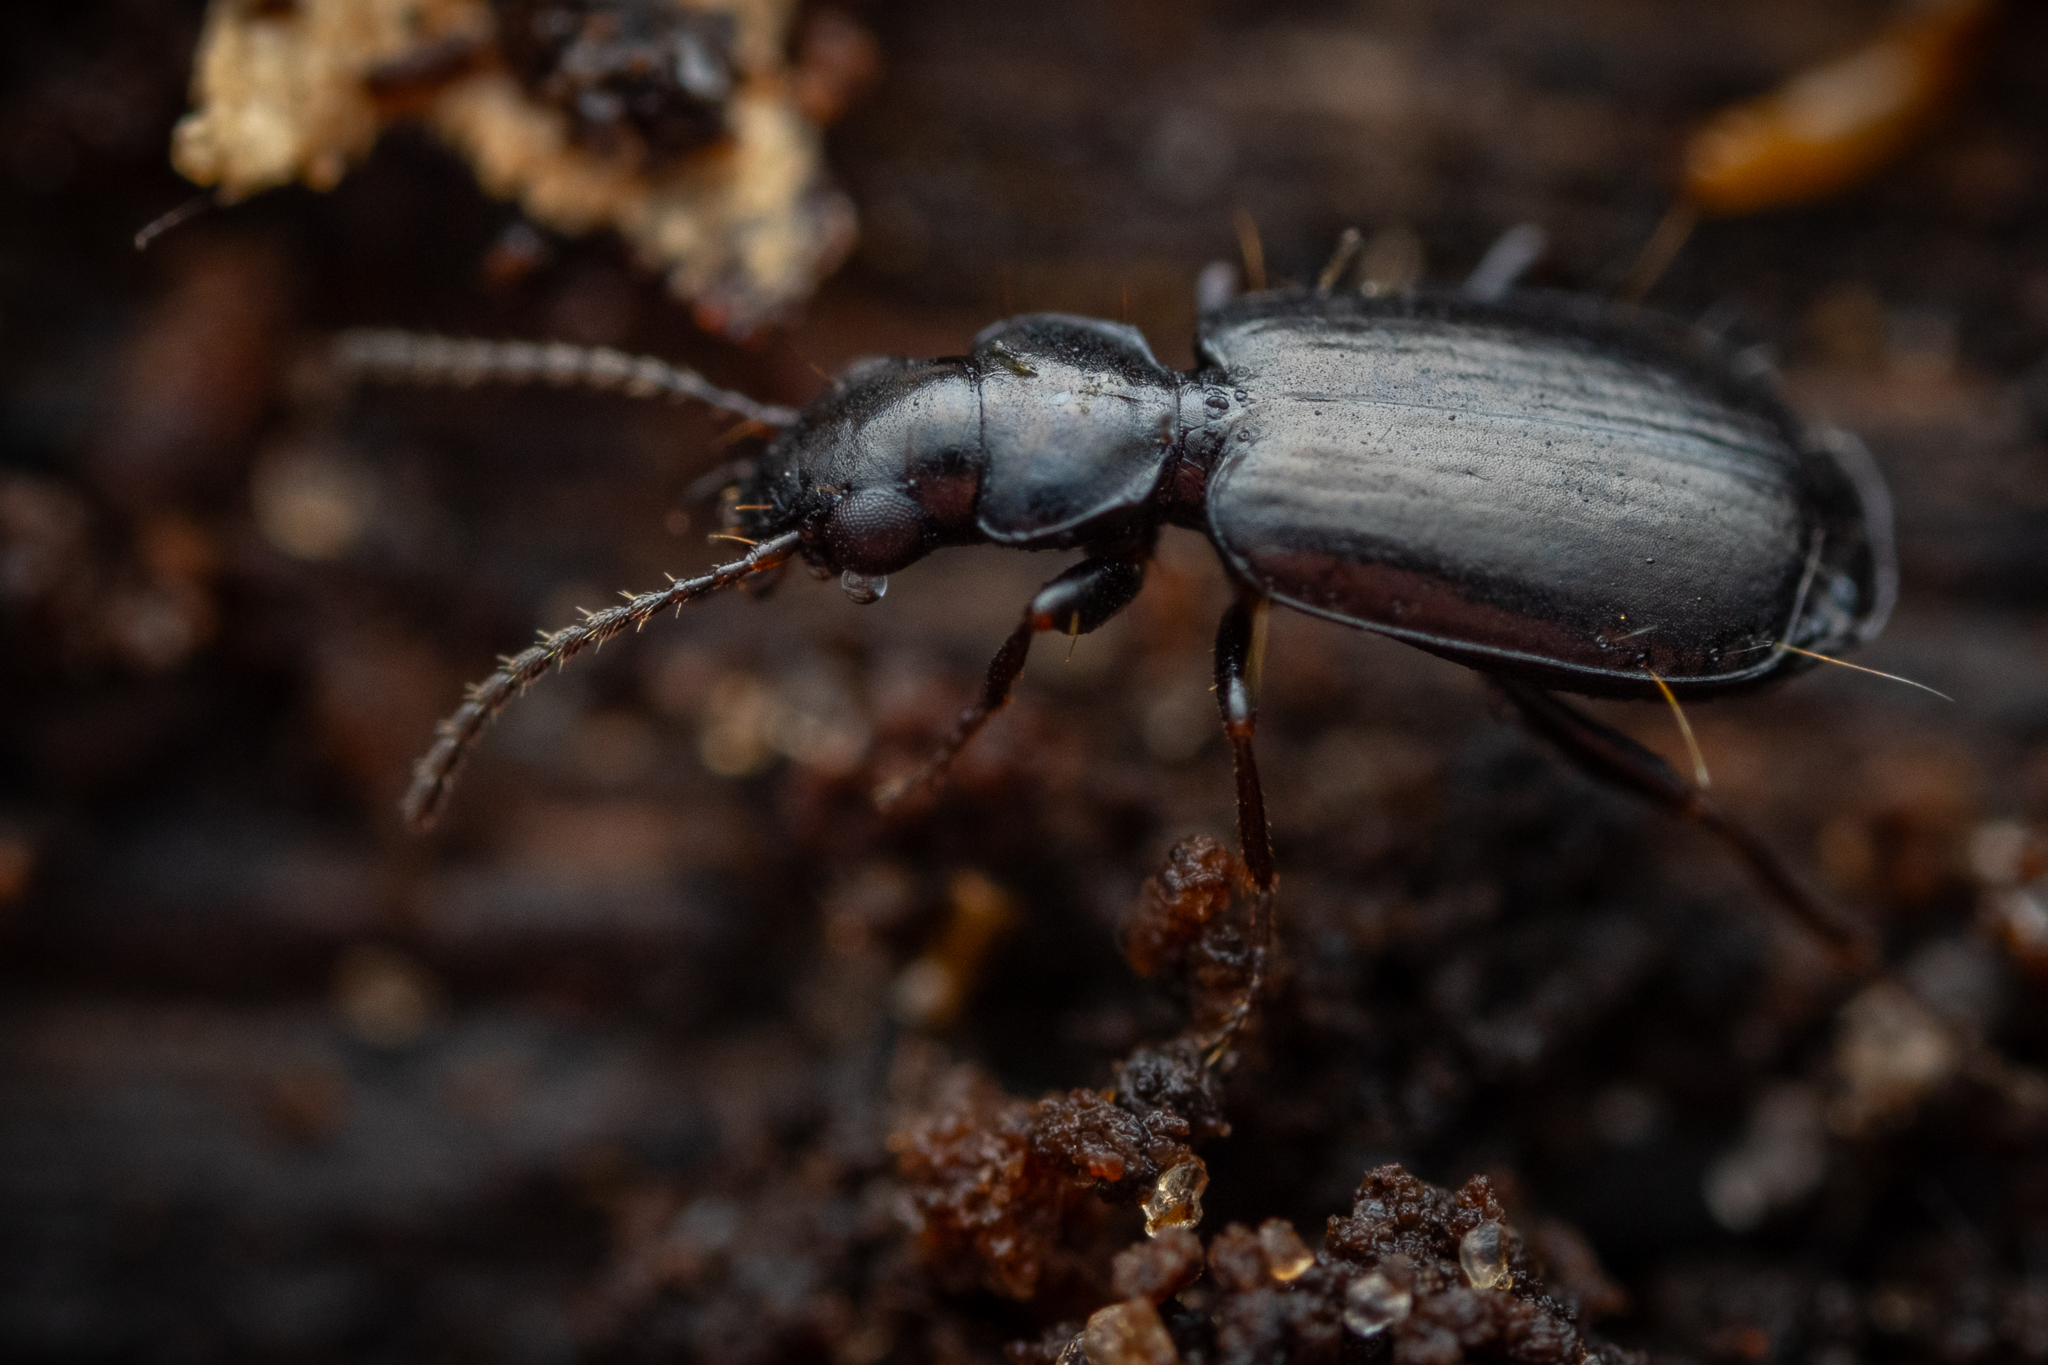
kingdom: Animalia
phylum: Arthropoda
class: Insecta
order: Coleoptera
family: Carabidae
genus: Syntomus
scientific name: Syntomus truncatellus
